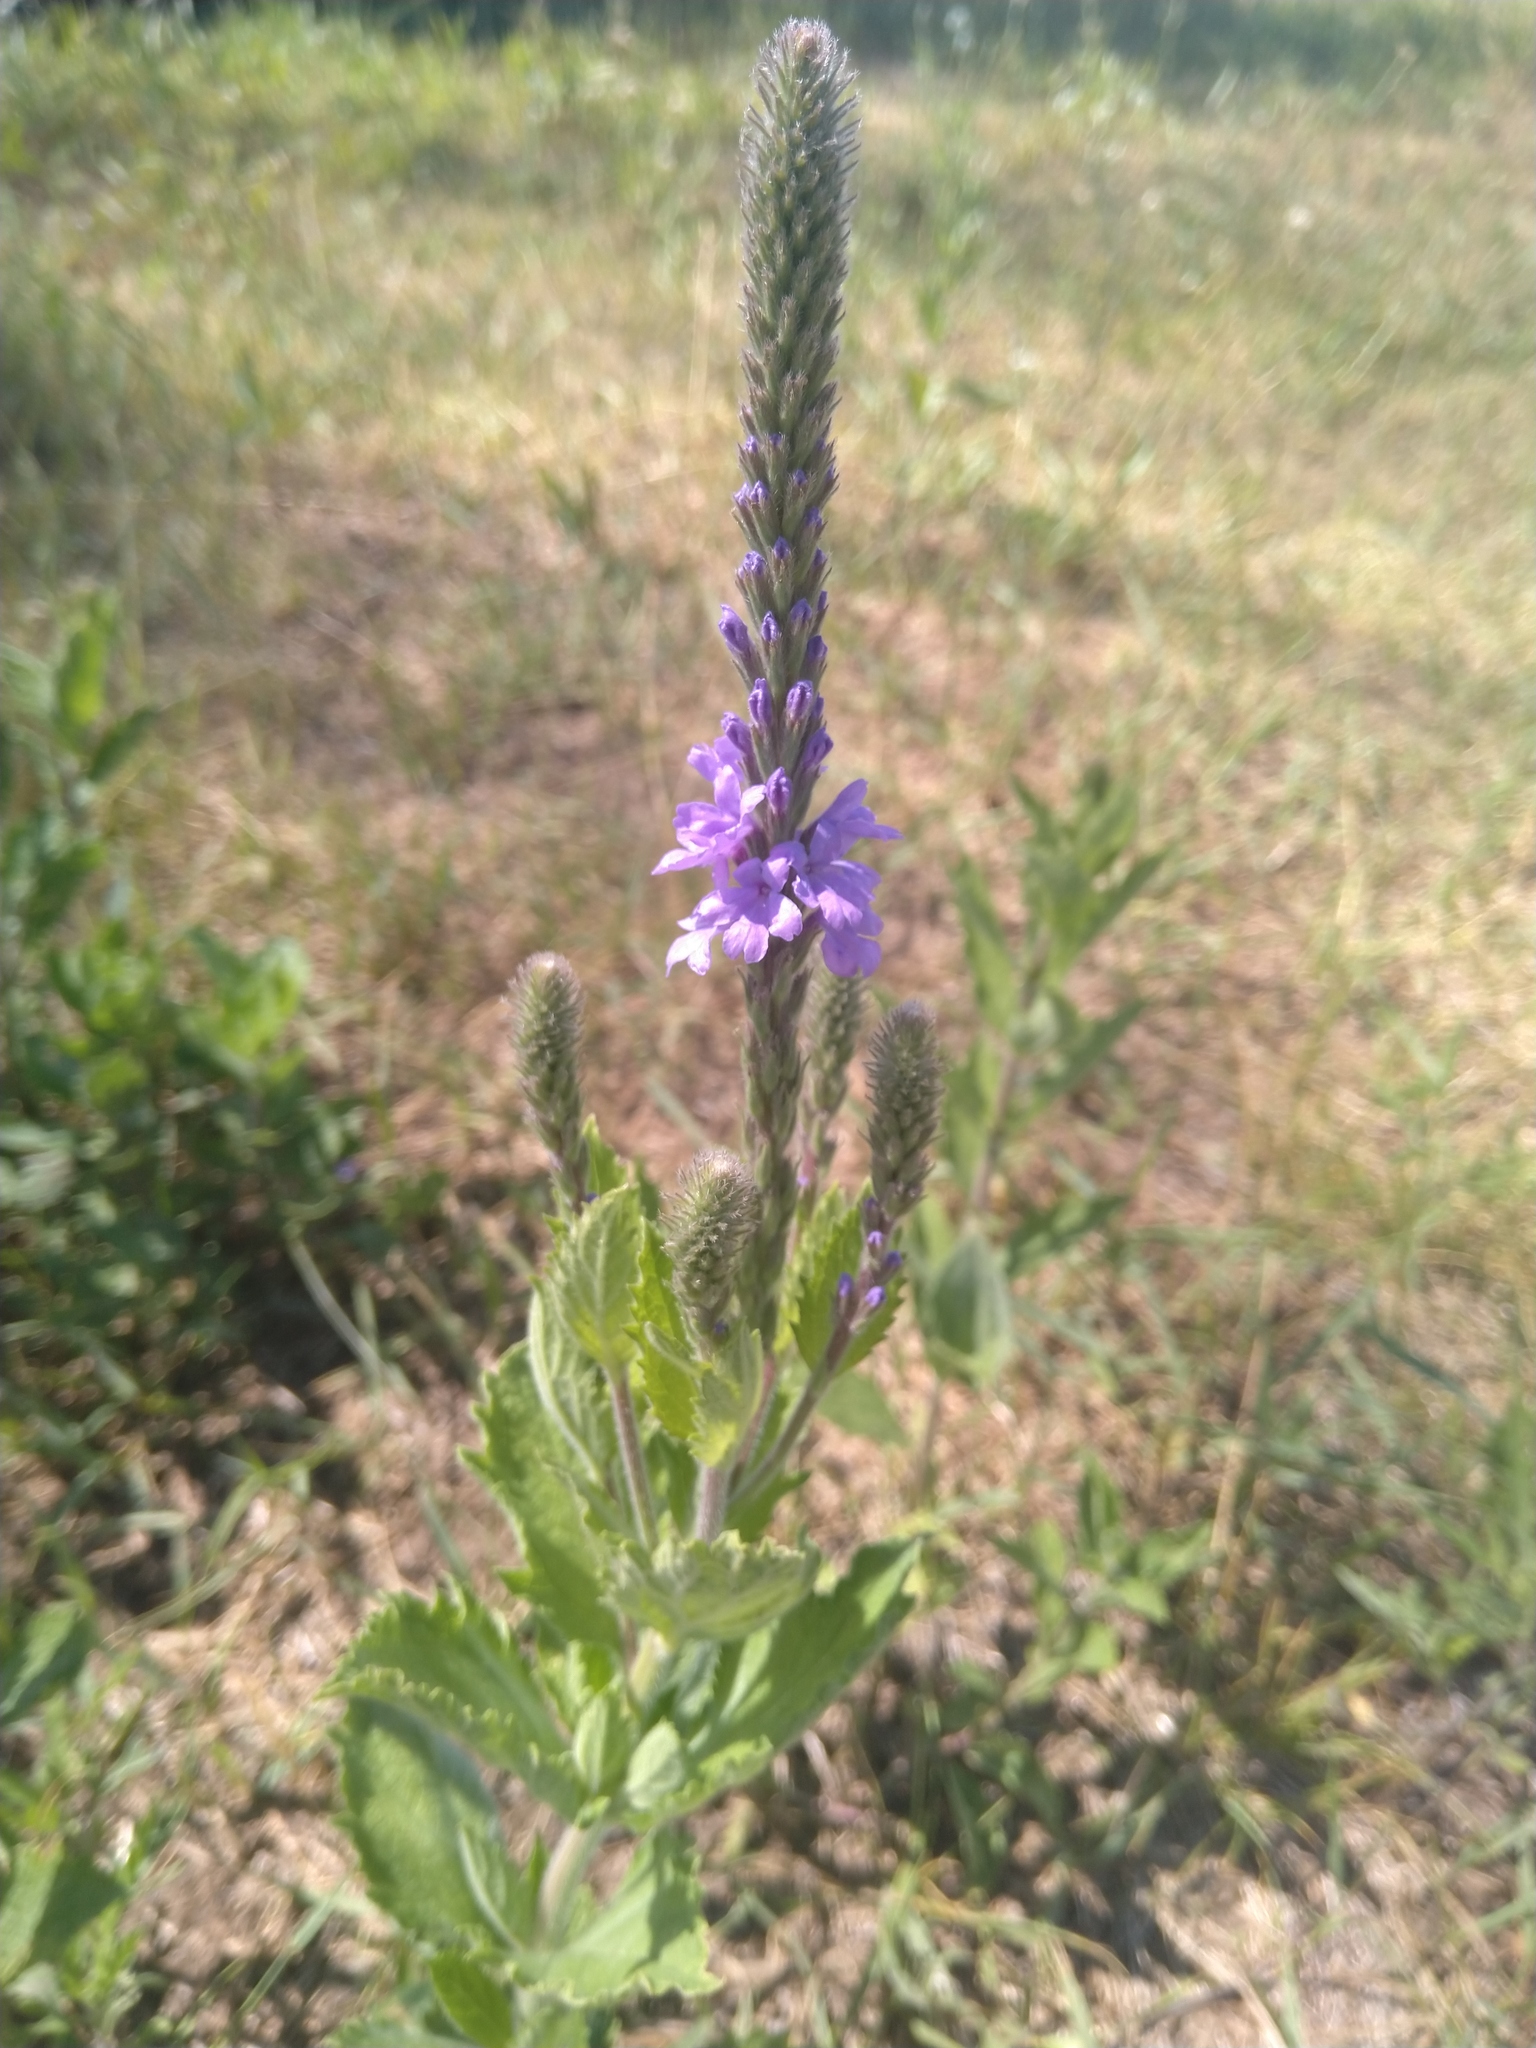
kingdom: Plantae
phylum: Tracheophyta
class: Magnoliopsida
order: Lamiales
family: Verbenaceae
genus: Verbena
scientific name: Verbena stricta
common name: Hoary vervain
